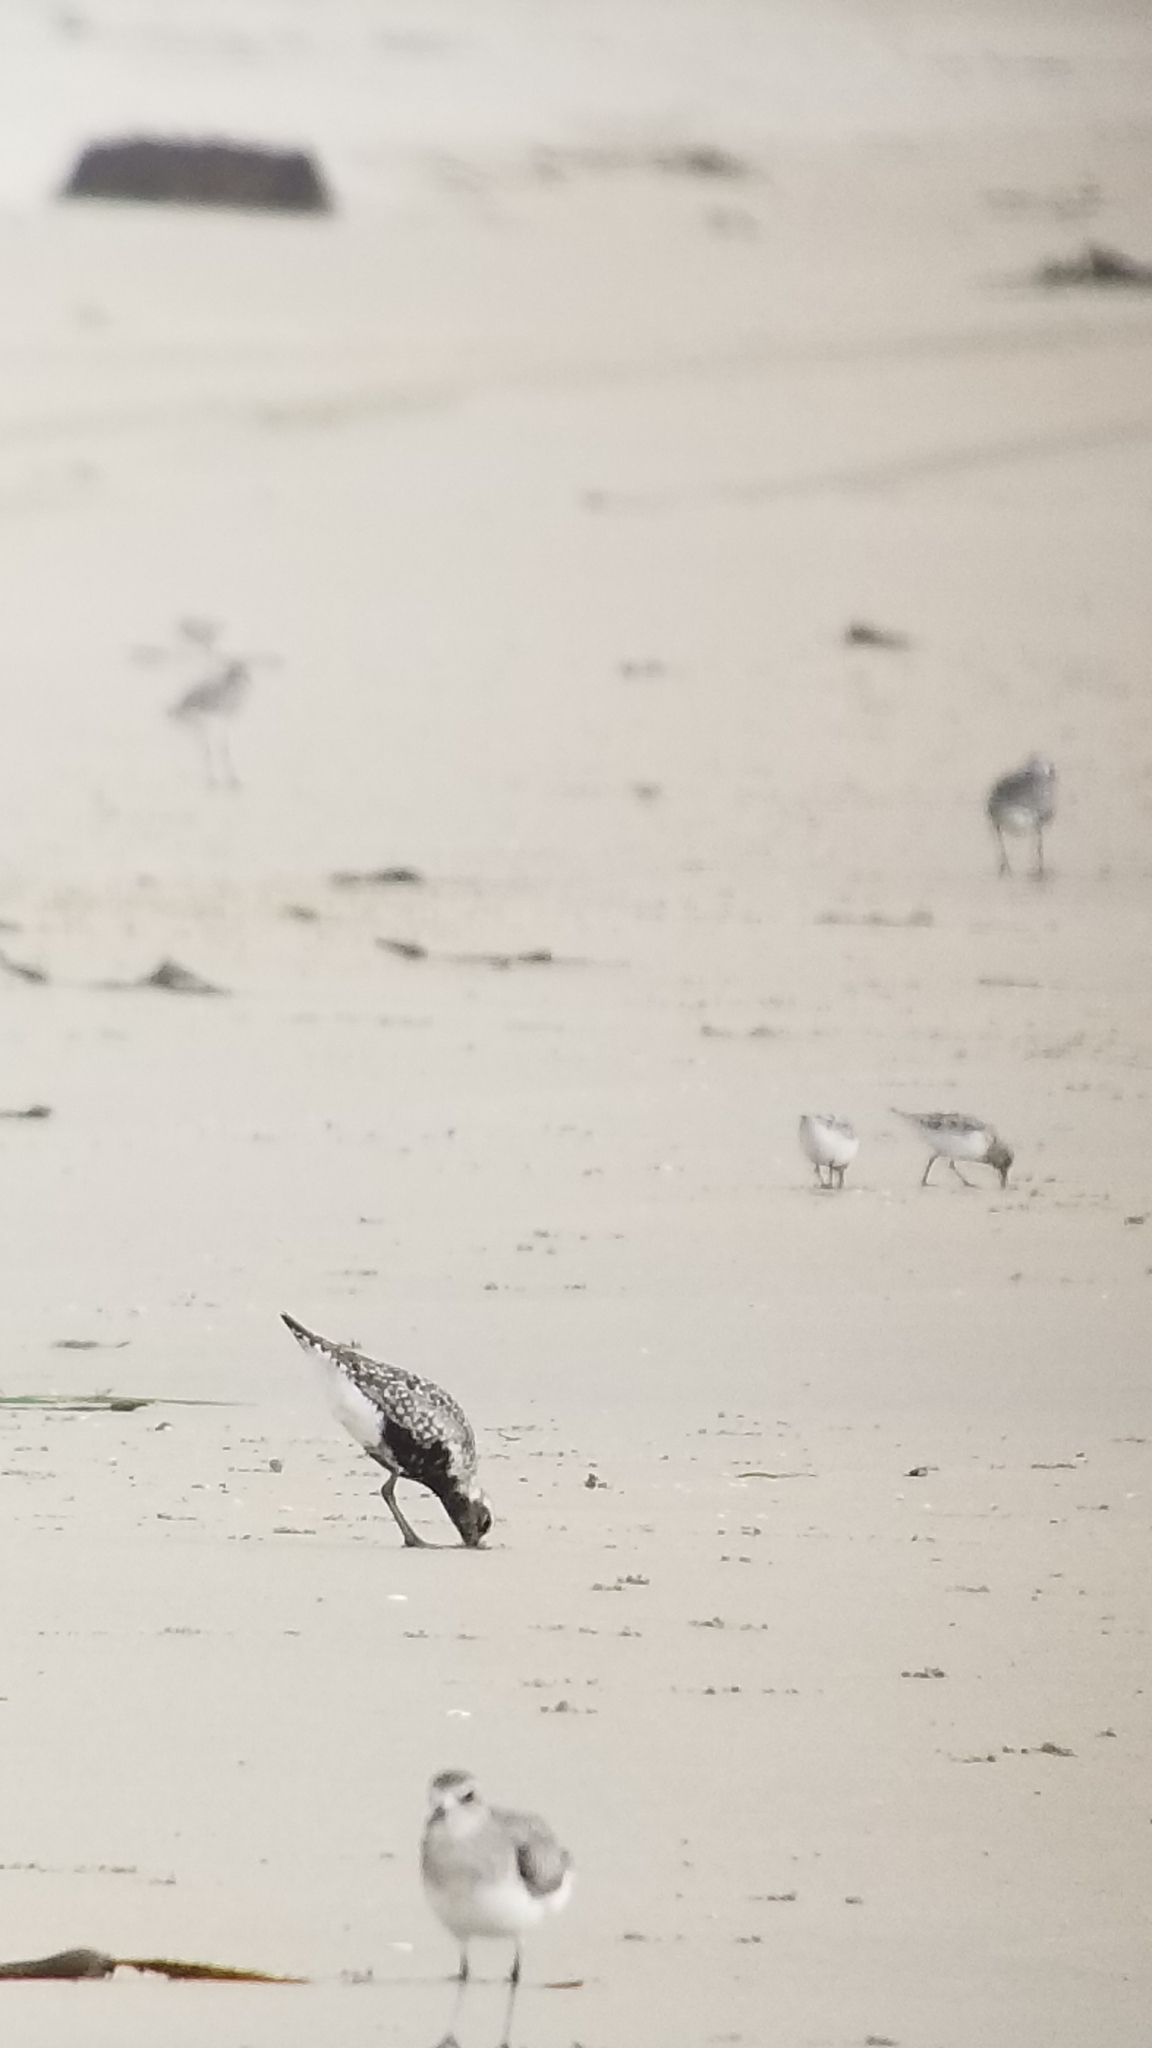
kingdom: Animalia
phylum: Chordata
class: Aves
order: Charadriiformes
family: Charadriidae
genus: Pluvialis
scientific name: Pluvialis squatarola
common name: Grey plover
